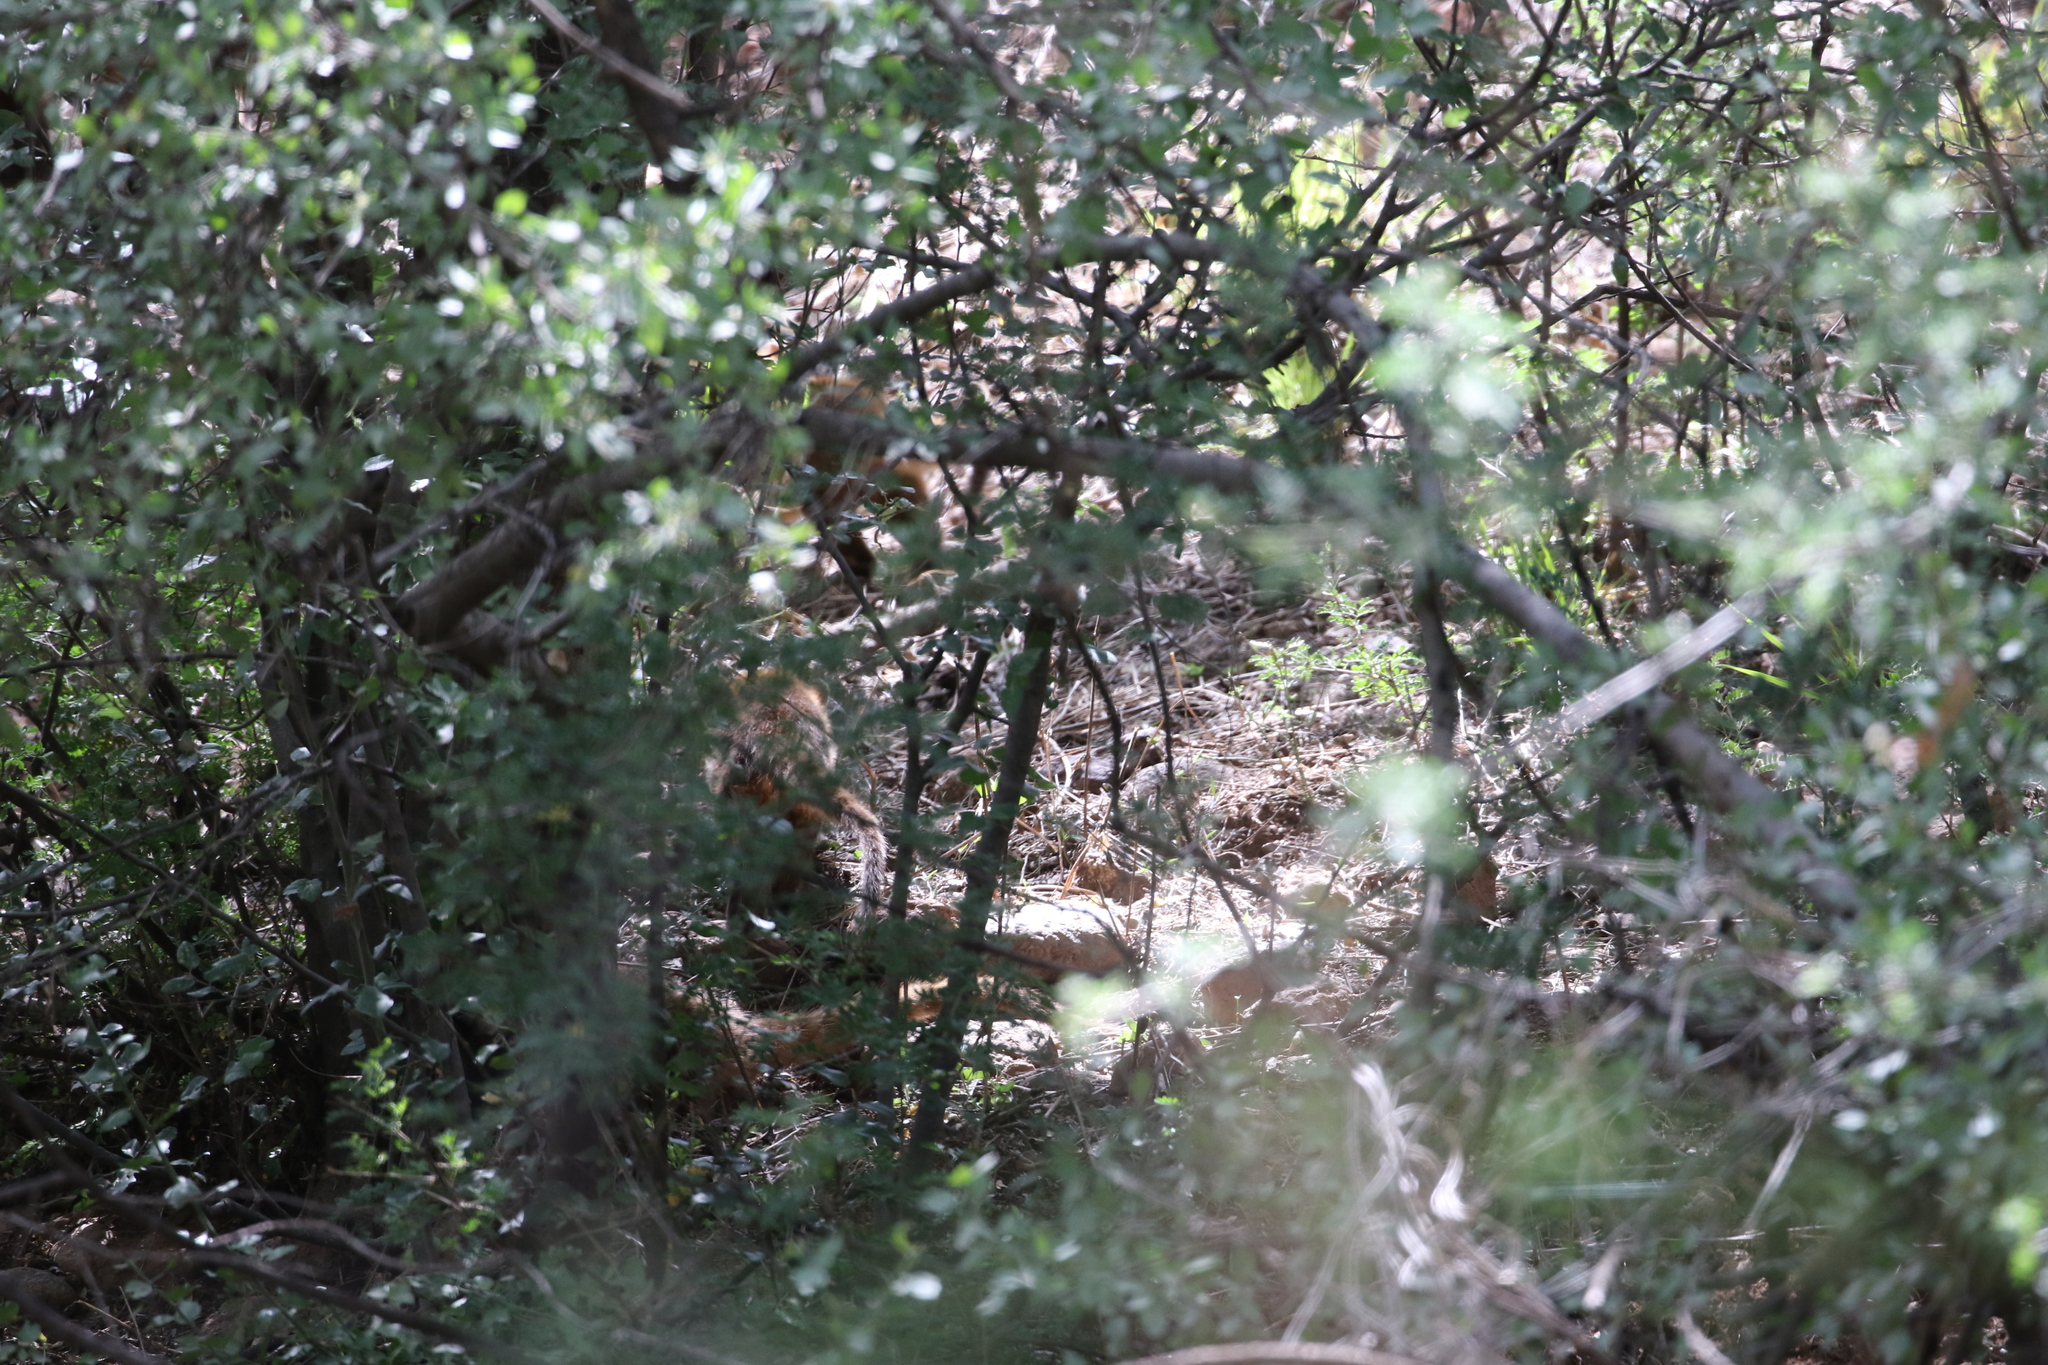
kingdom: Animalia
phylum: Chordata
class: Mammalia
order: Carnivora
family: Procyonidae
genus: Nasua
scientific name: Nasua narica
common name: White-nosed coati
